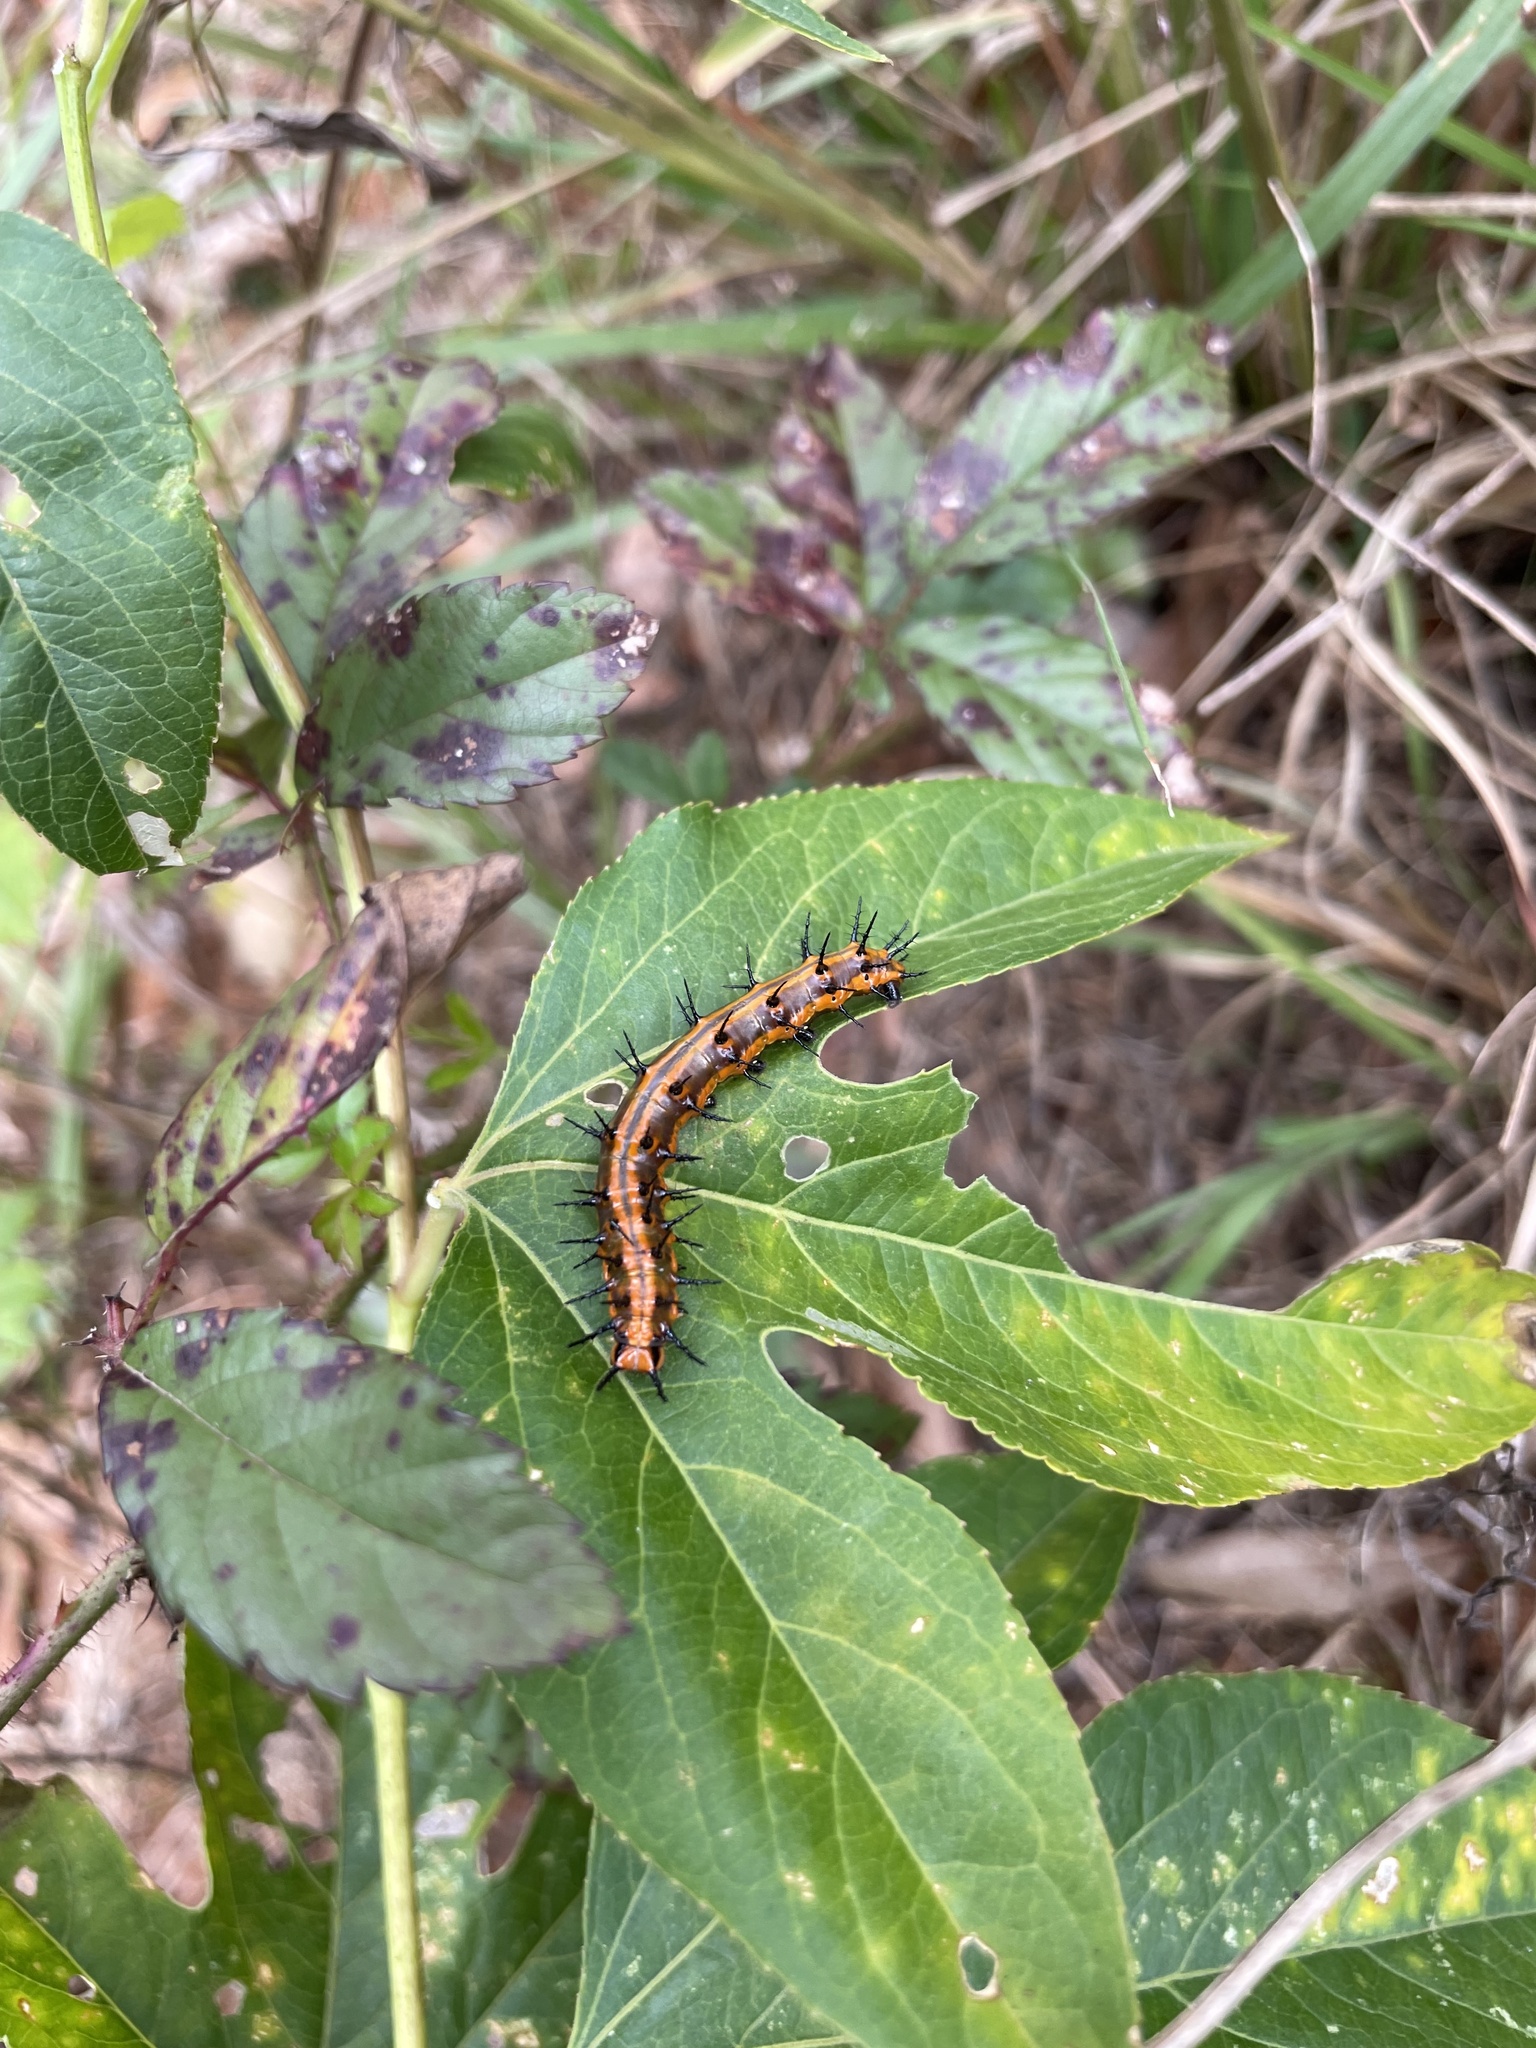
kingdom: Animalia
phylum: Arthropoda
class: Insecta
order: Lepidoptera
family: Nymphalidae
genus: Dione
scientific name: Dione vanillae
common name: Gulf fritillary
